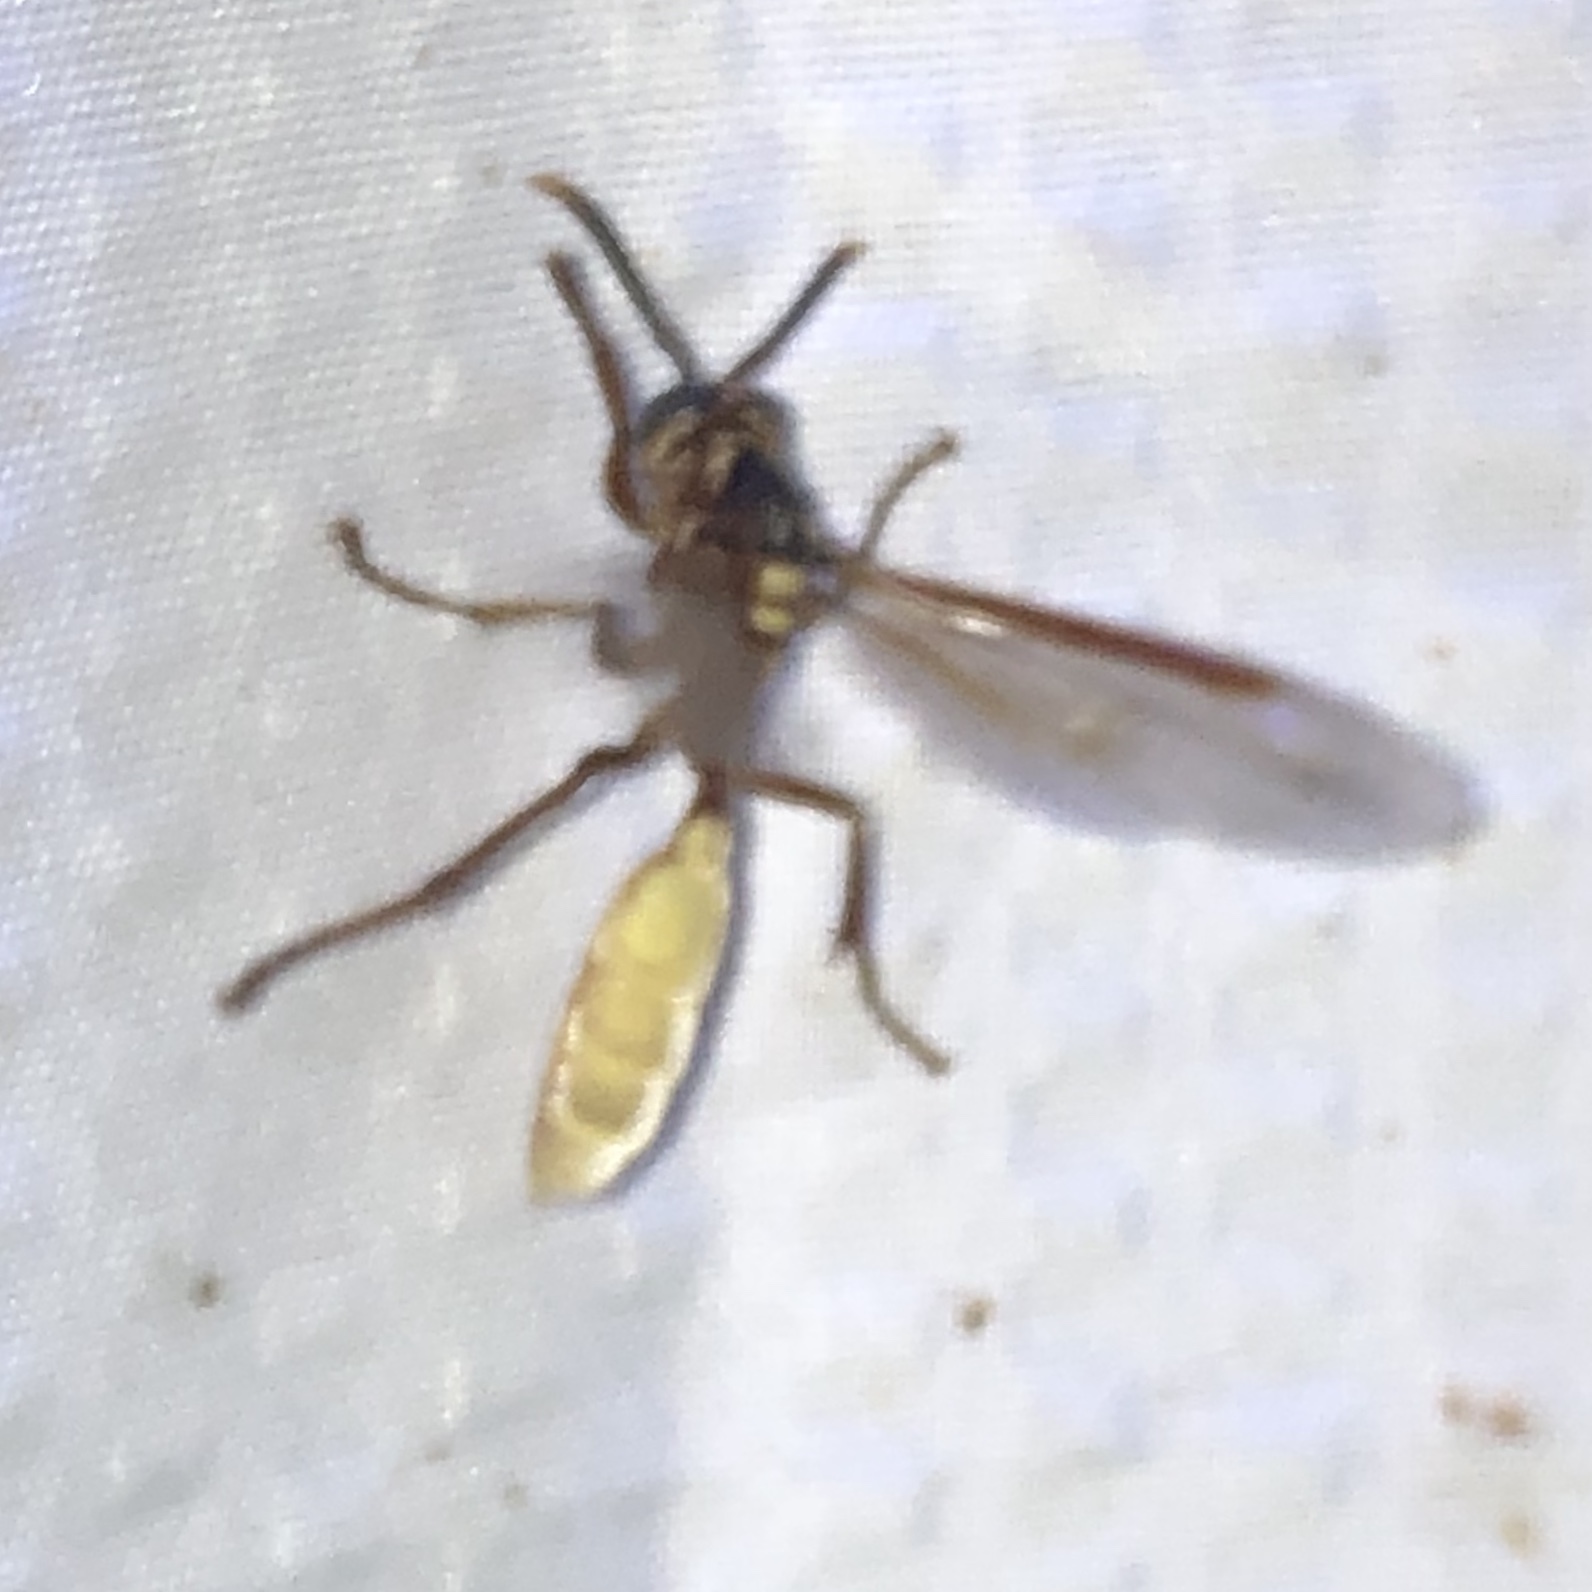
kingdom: Animalia
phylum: Arthropoda
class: Insecta
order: Hymenoptera
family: Vespidae
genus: Apoica
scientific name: Apoica pallens
